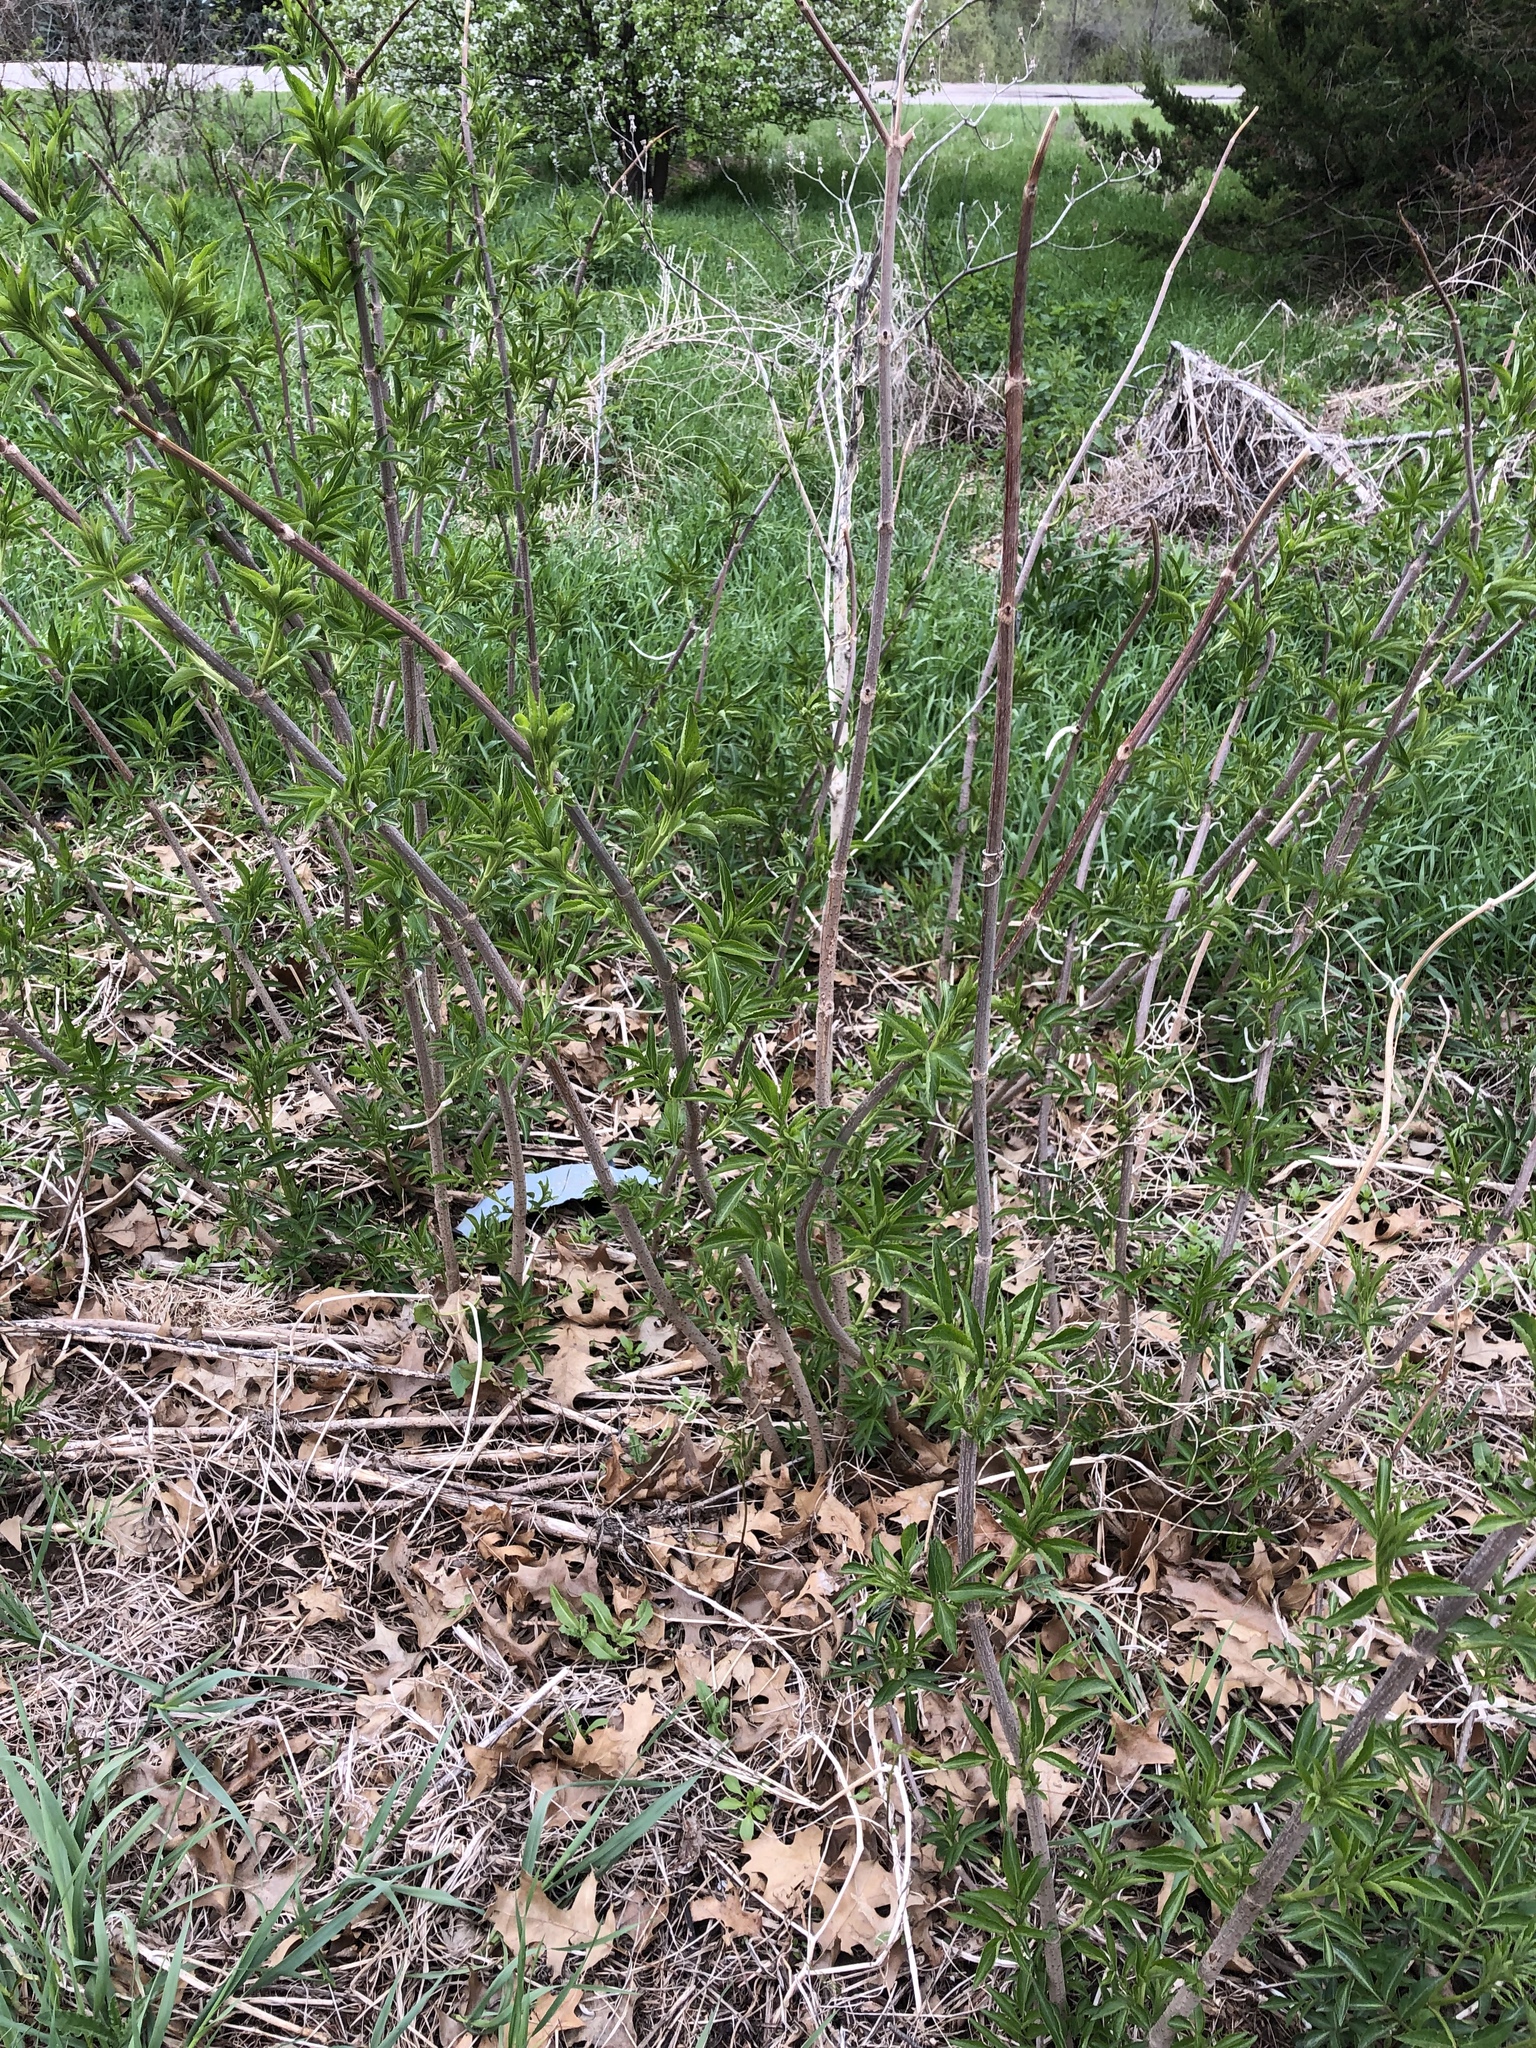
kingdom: Plantae
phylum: Tracheophyta
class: Magnoliopsida
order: Dipsacales
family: Viburnaceae
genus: Sambucus
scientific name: Sambucus canadensis
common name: American elder
